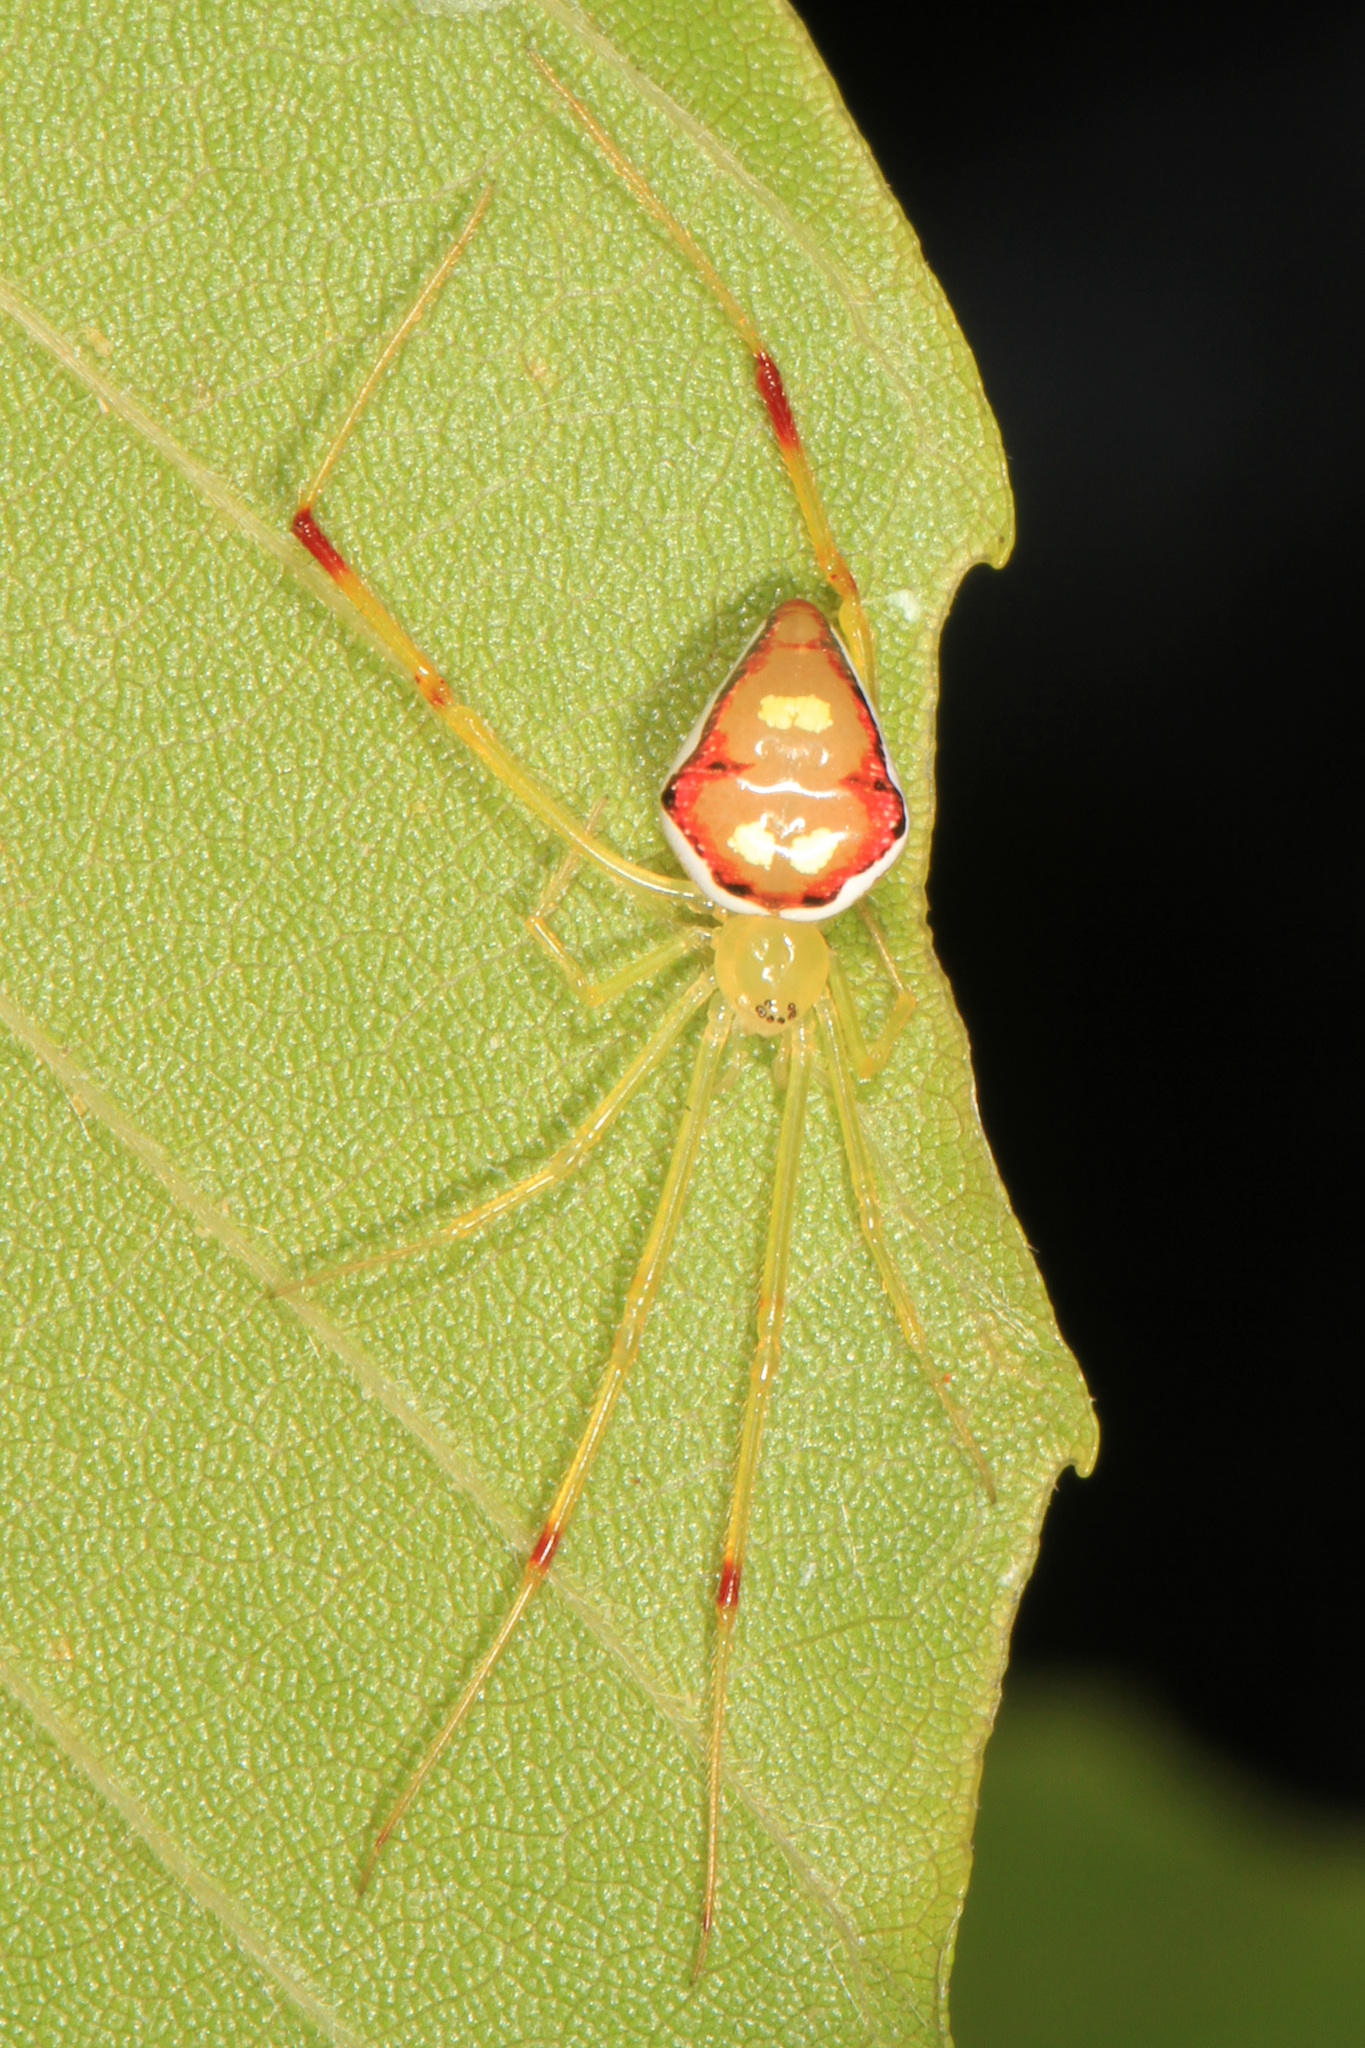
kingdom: Animalia
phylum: Arthropoda
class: Arachnida
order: Araneae
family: Theridiidae
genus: Spintharus
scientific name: Spintharus flavidus
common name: Cobweb spiders
